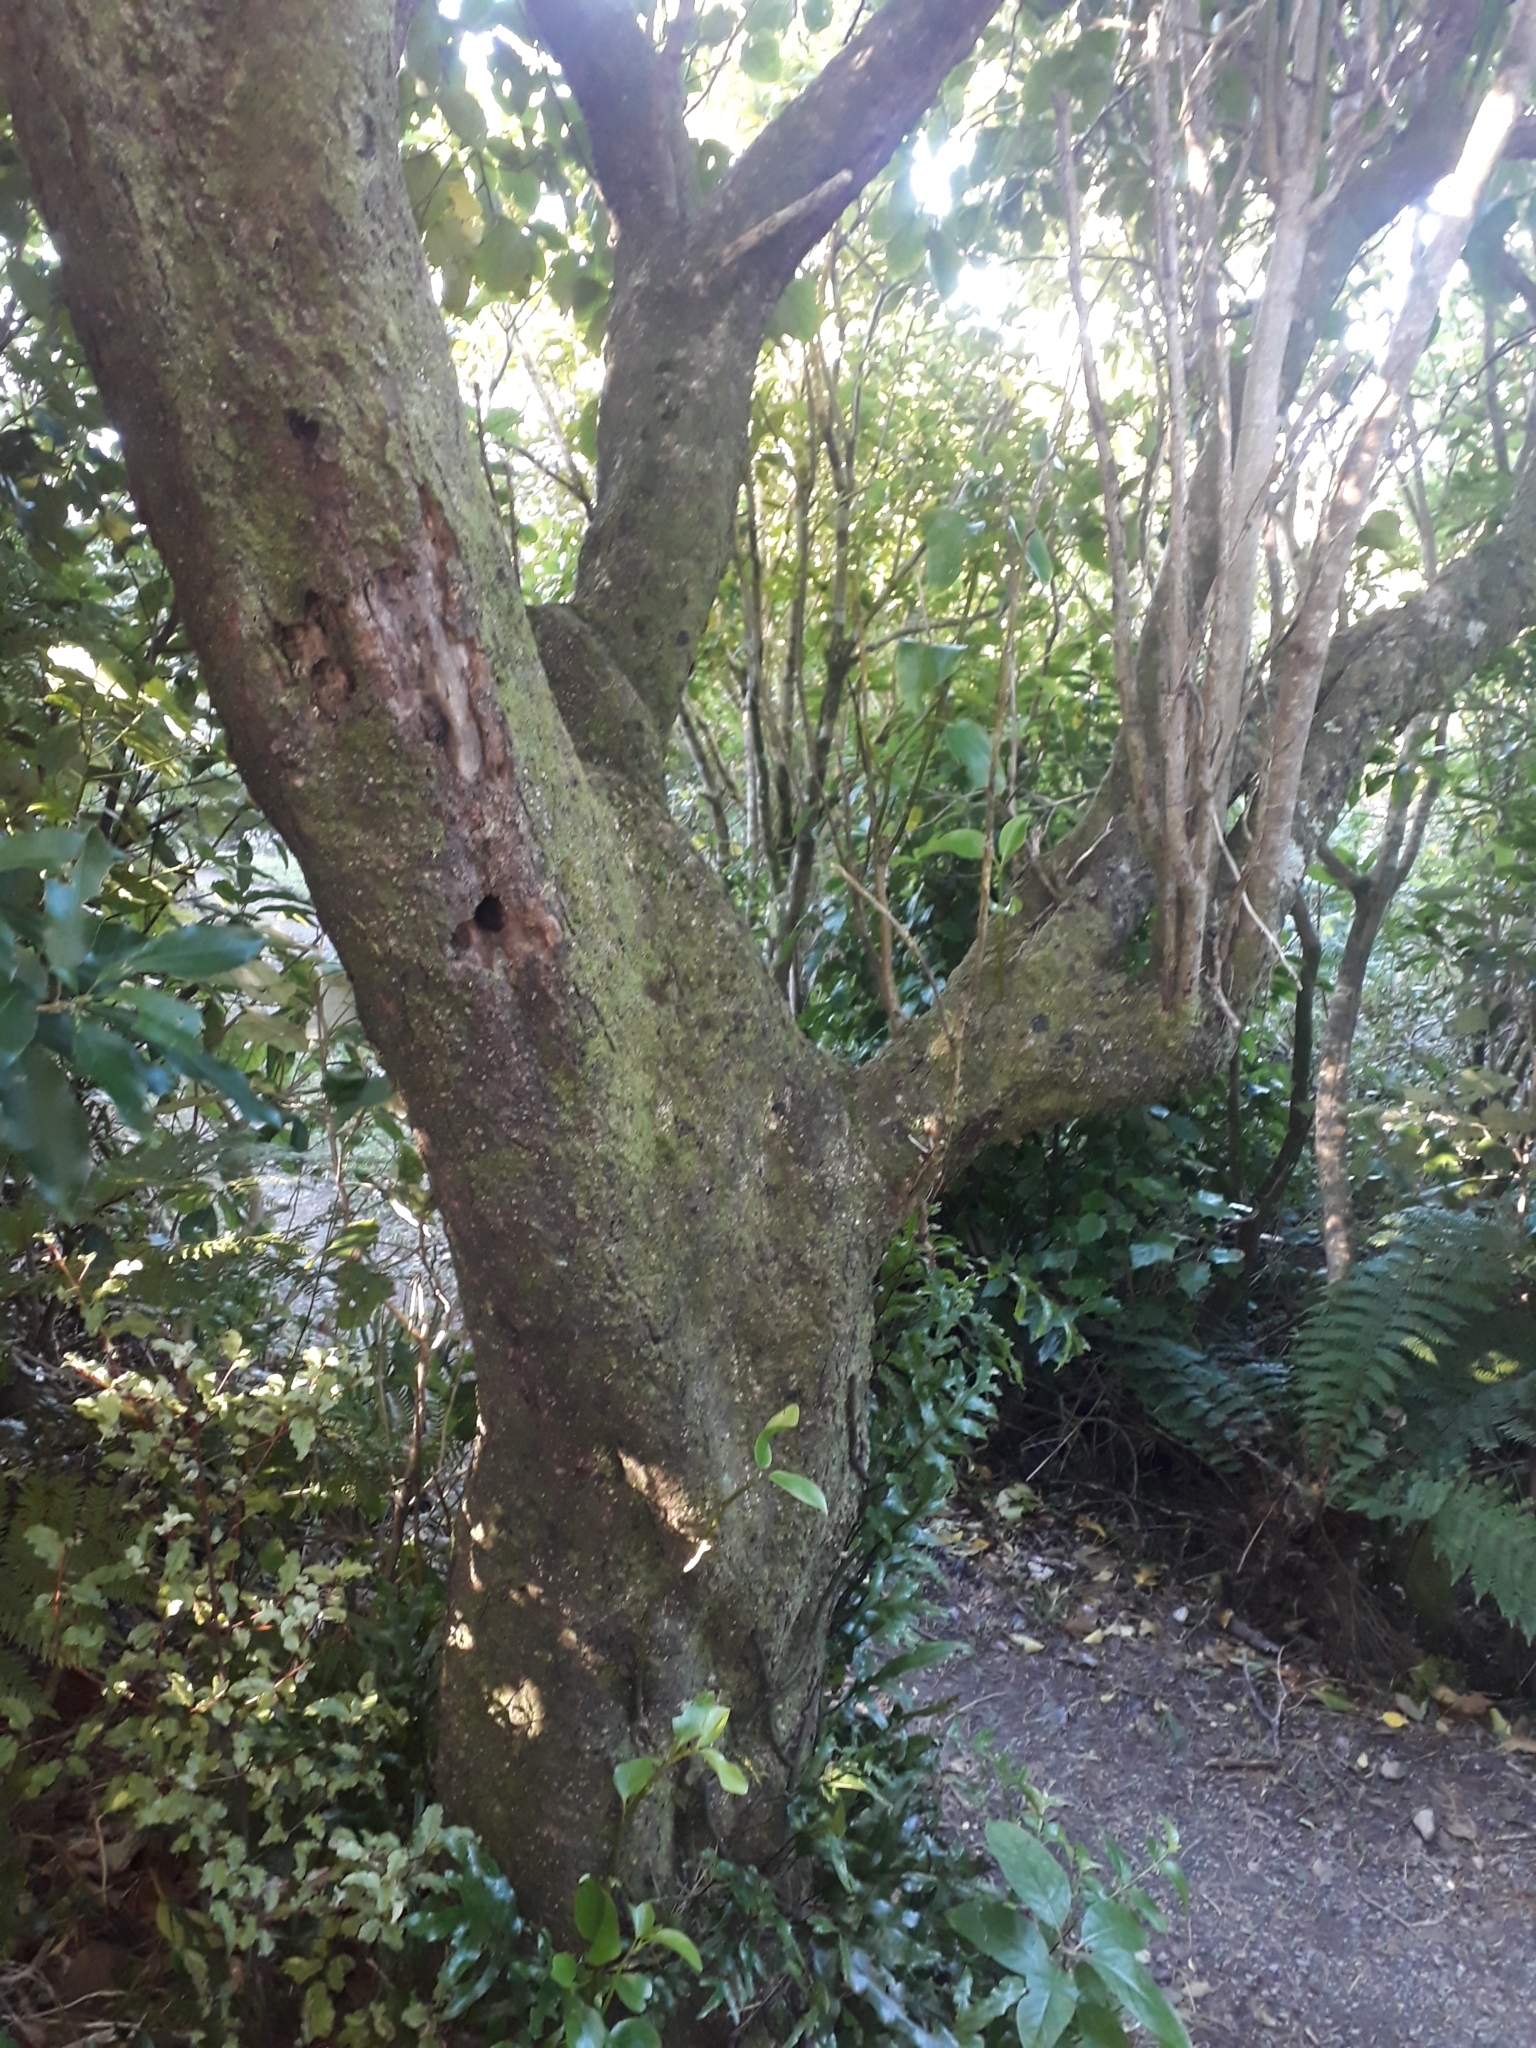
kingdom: Plantae
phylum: Tracheophyta
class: Magnoliopsida
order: Apiales
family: Griseliniaceae
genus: Griselinia
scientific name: Griselinia littoralis
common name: New zealand broadleaf
